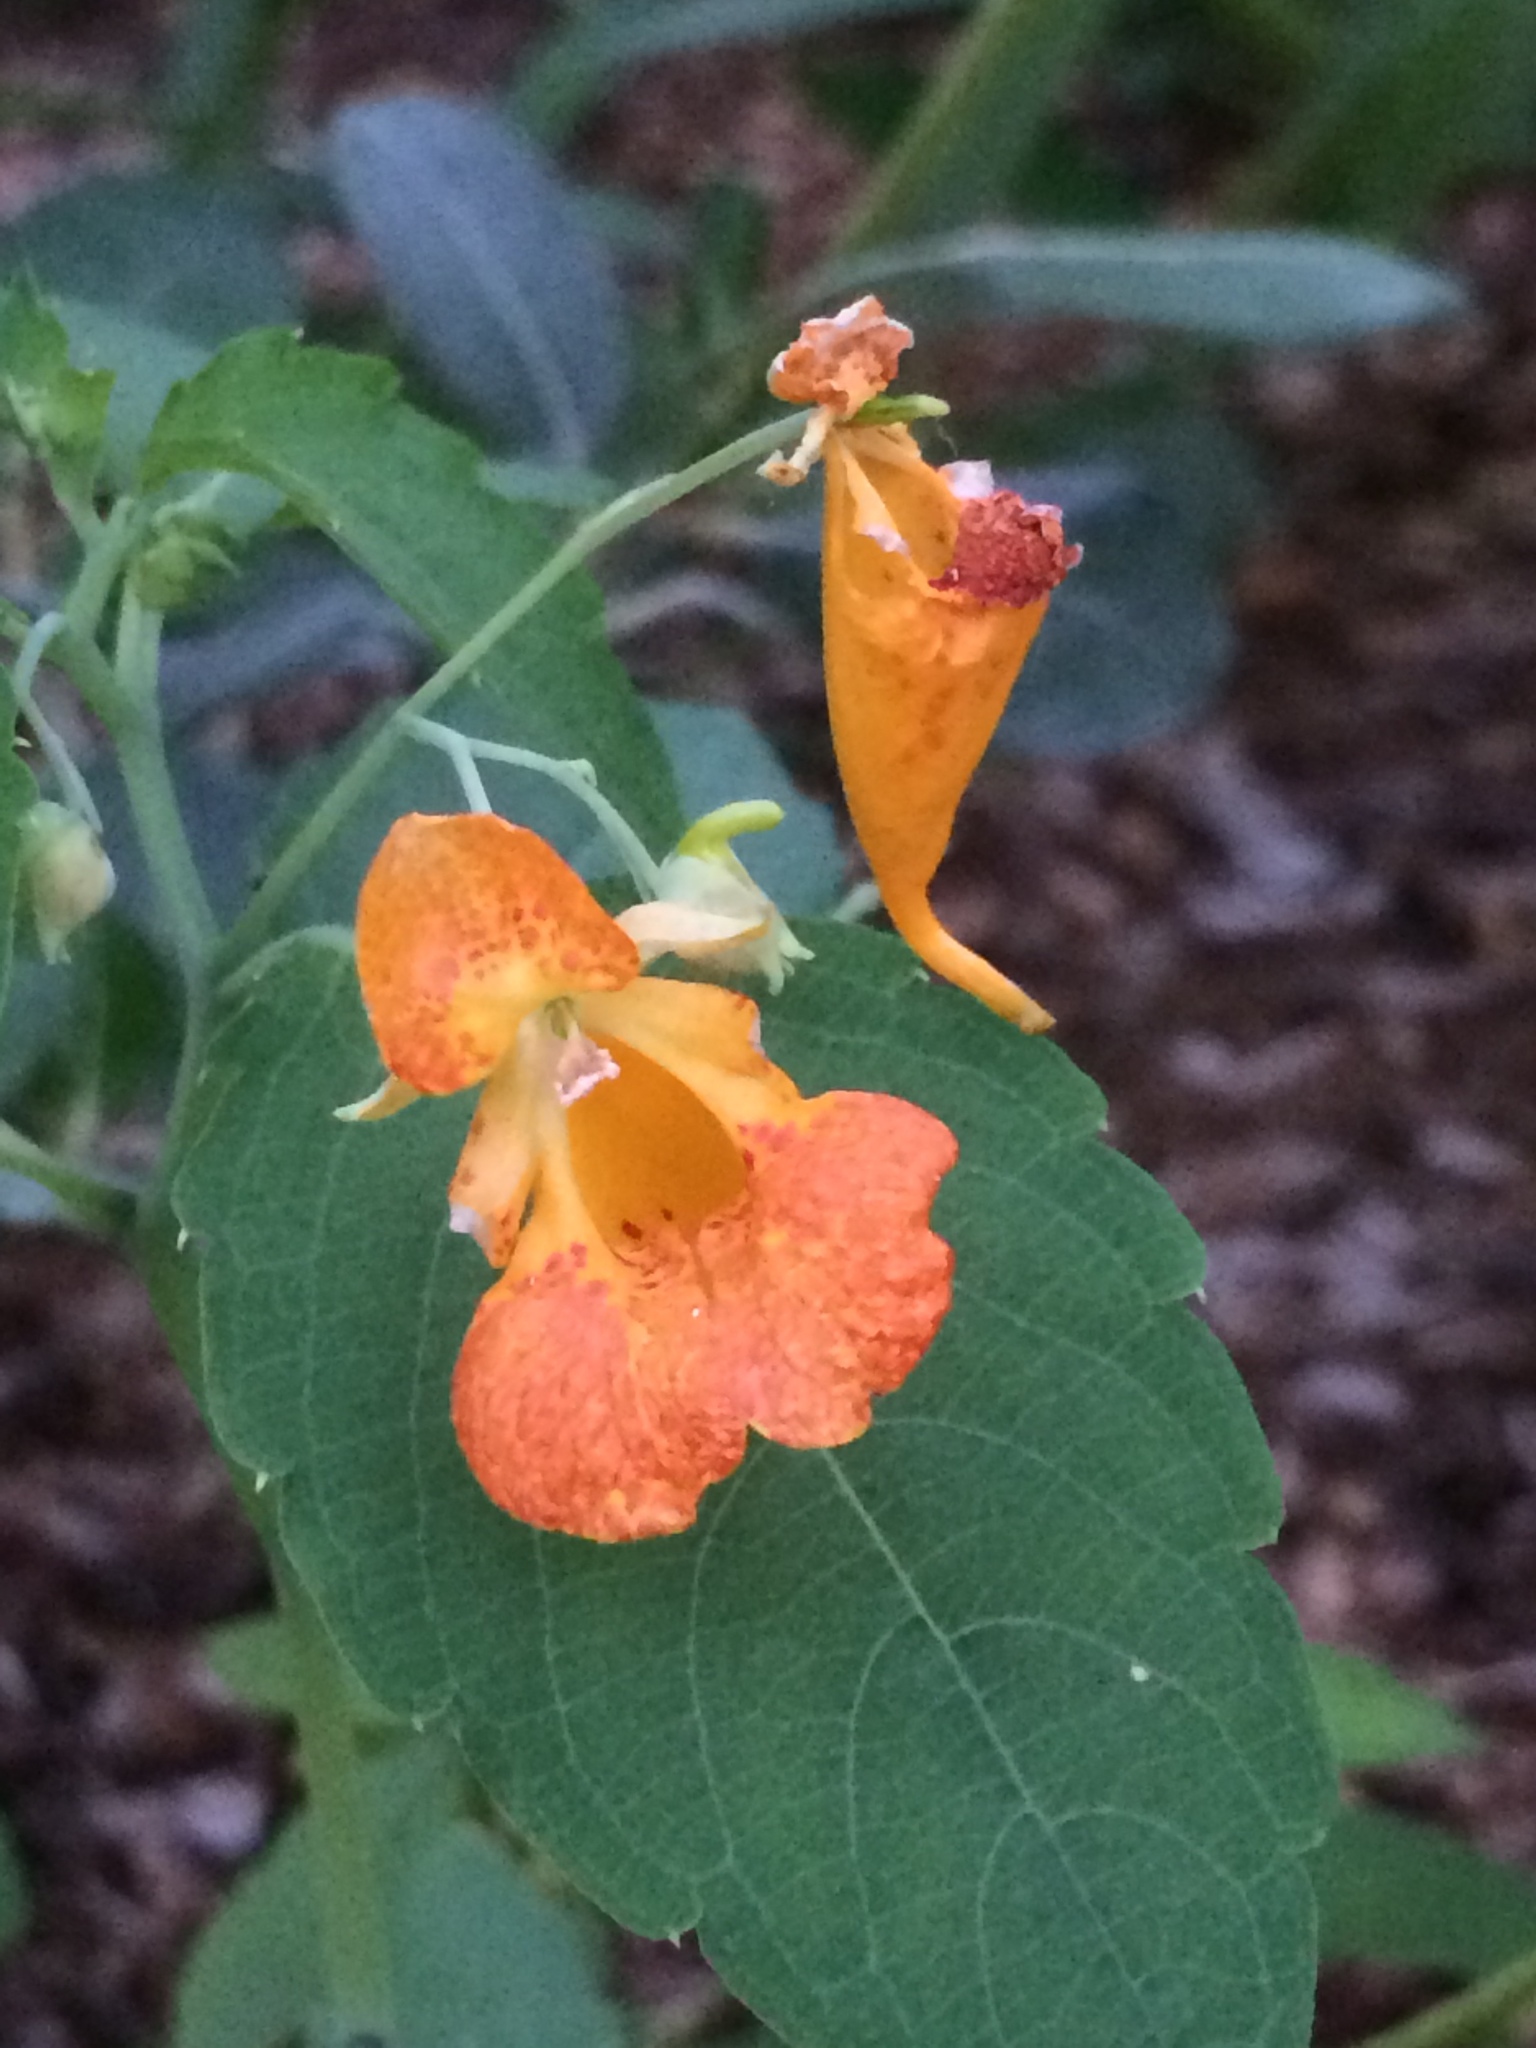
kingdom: Plantae
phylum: Tracheophyta
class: Magnoliopsida
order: Ericales
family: Balsaminaceae
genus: Impatiens
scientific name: Impatiens capensis
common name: Orange balsam
